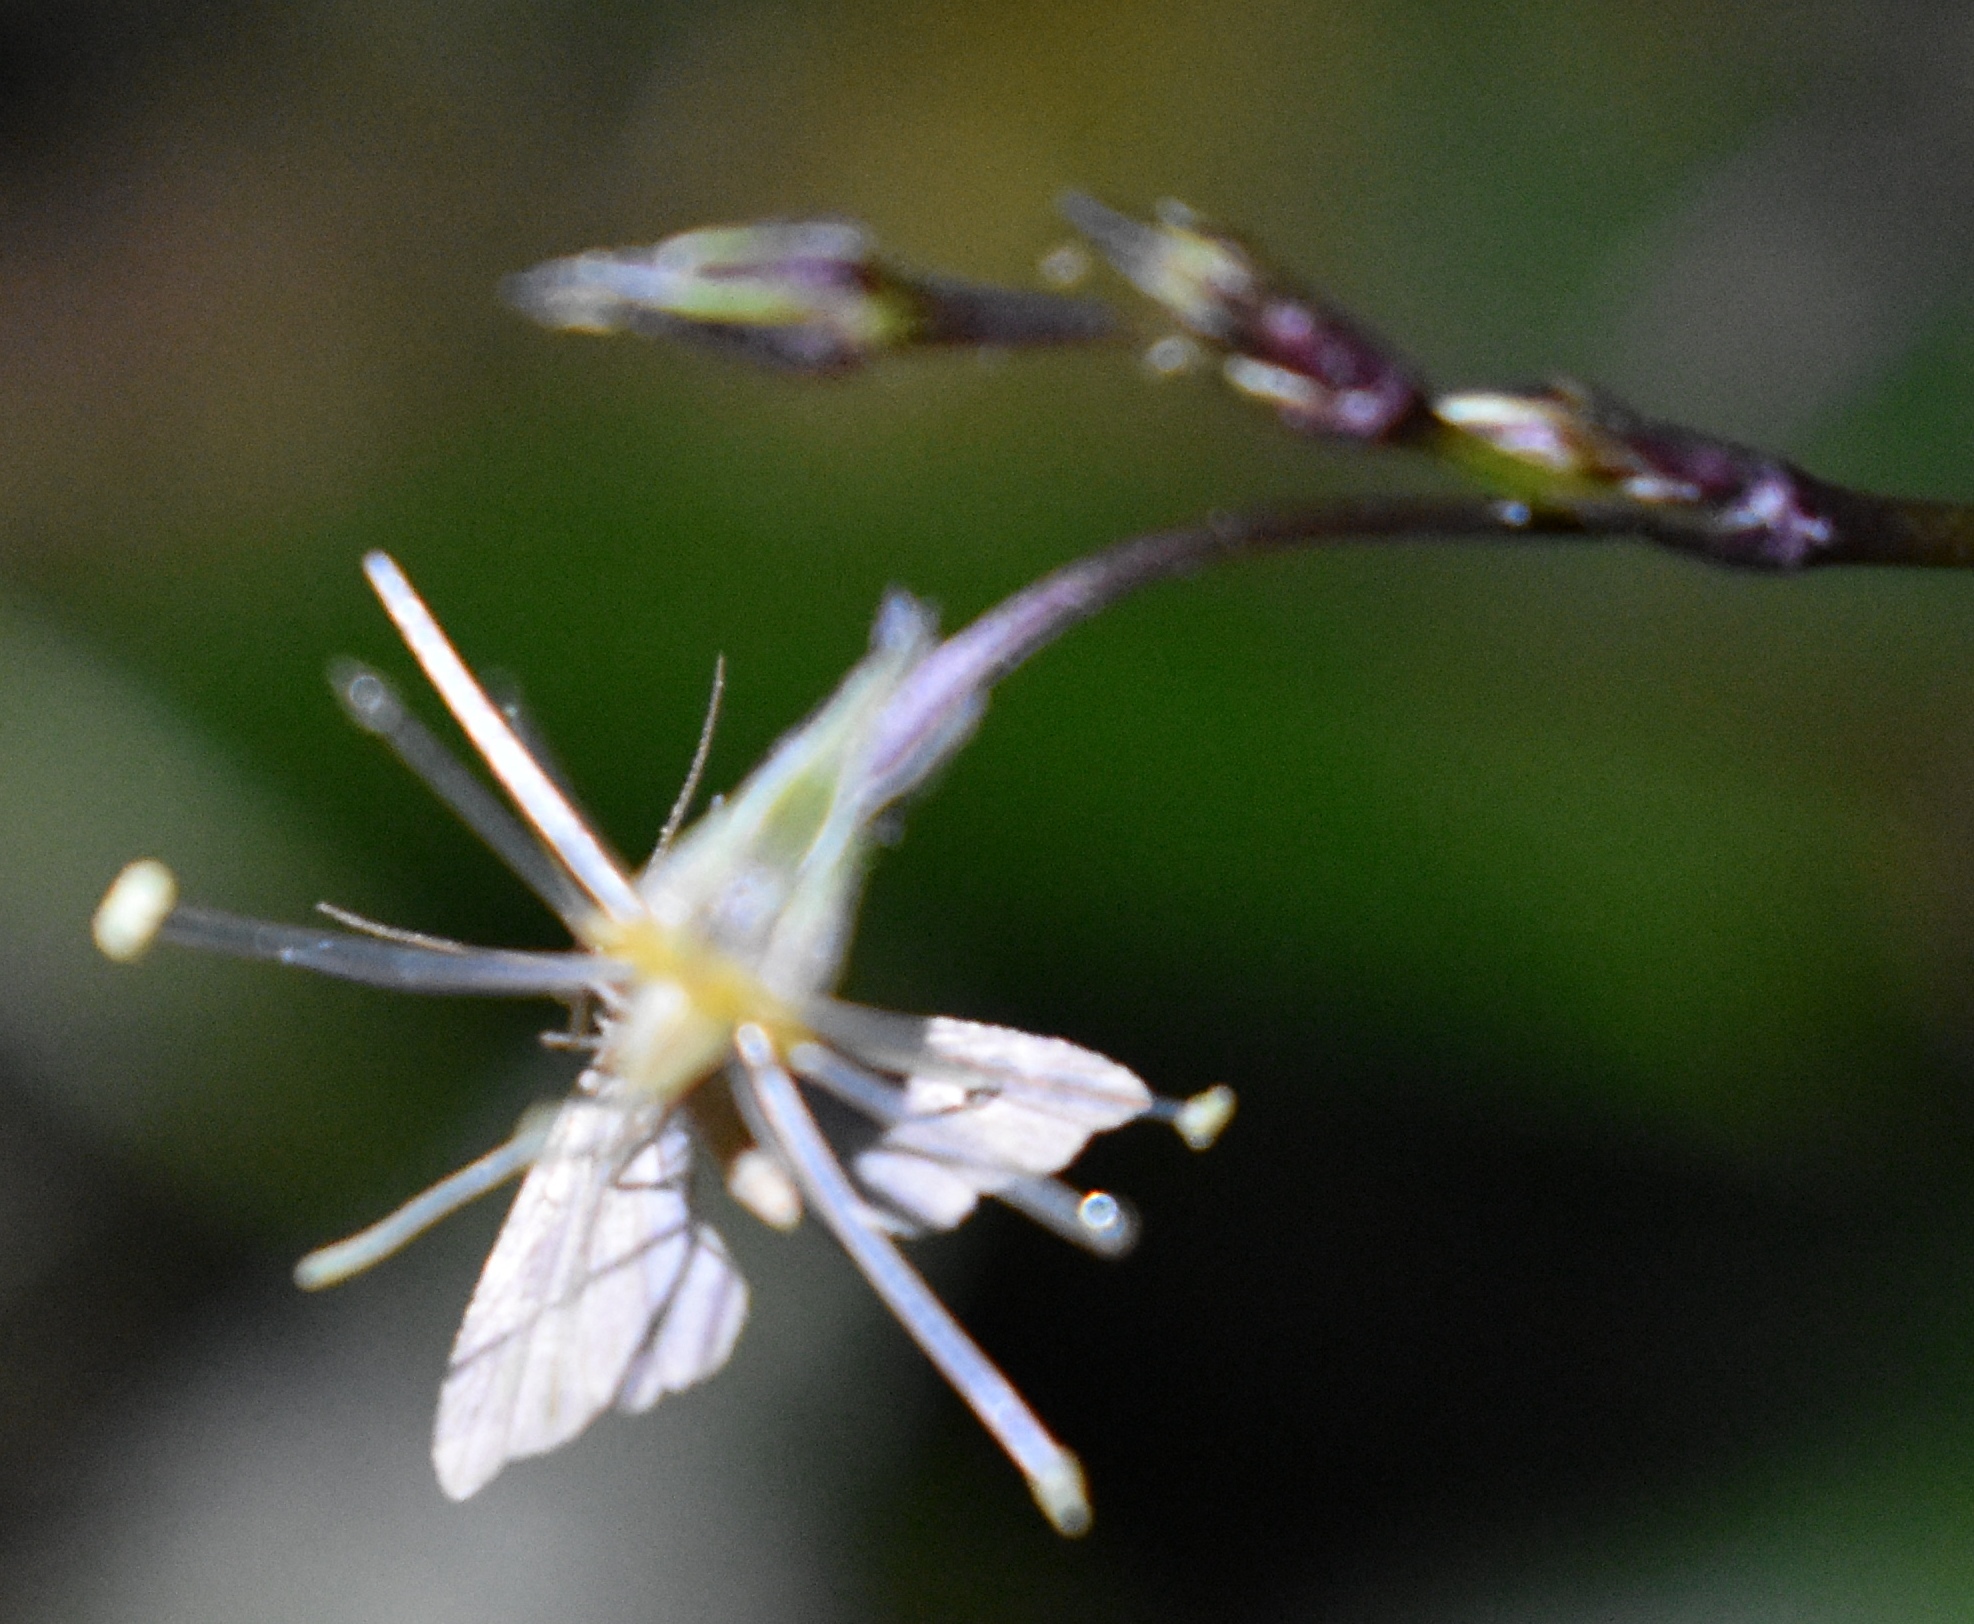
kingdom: Animalia
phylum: Arthropoda
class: Insecta
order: Lepidoptera
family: Erebidae
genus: Pseudoschrankia
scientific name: Pseudoschrankia brevipalpis
